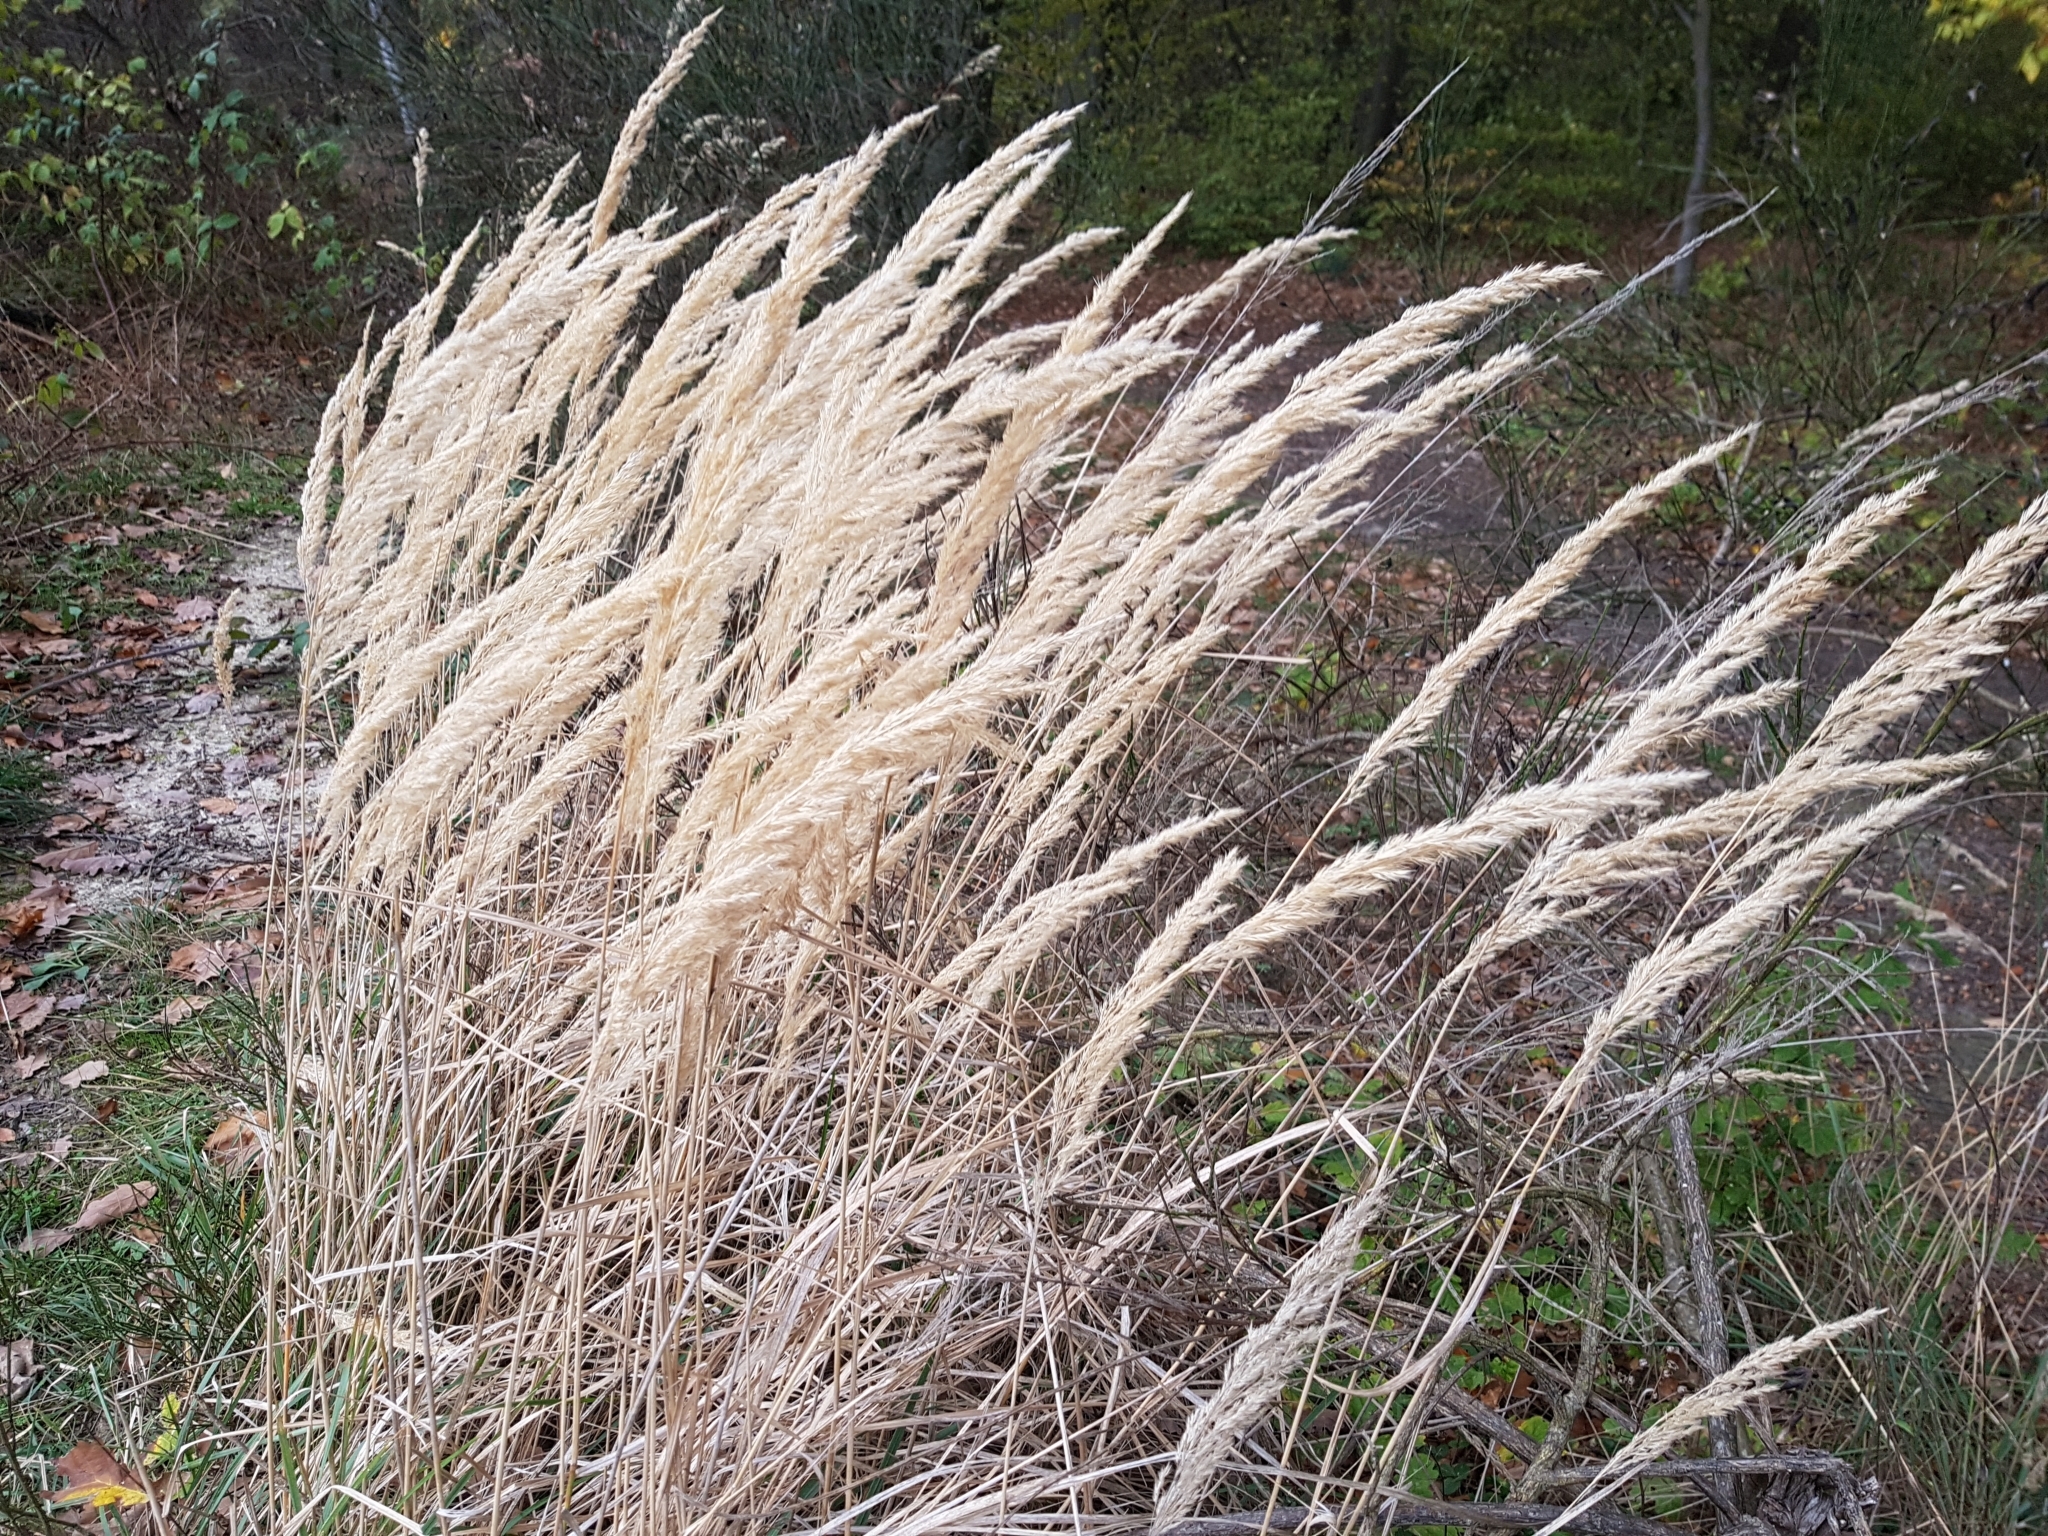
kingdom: Plantae
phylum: Tracheophyta
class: Liliopsida
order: Poales
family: Poaceae
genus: Calamagrostis
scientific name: Calamagrostis epigejos
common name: Wood small-reed
